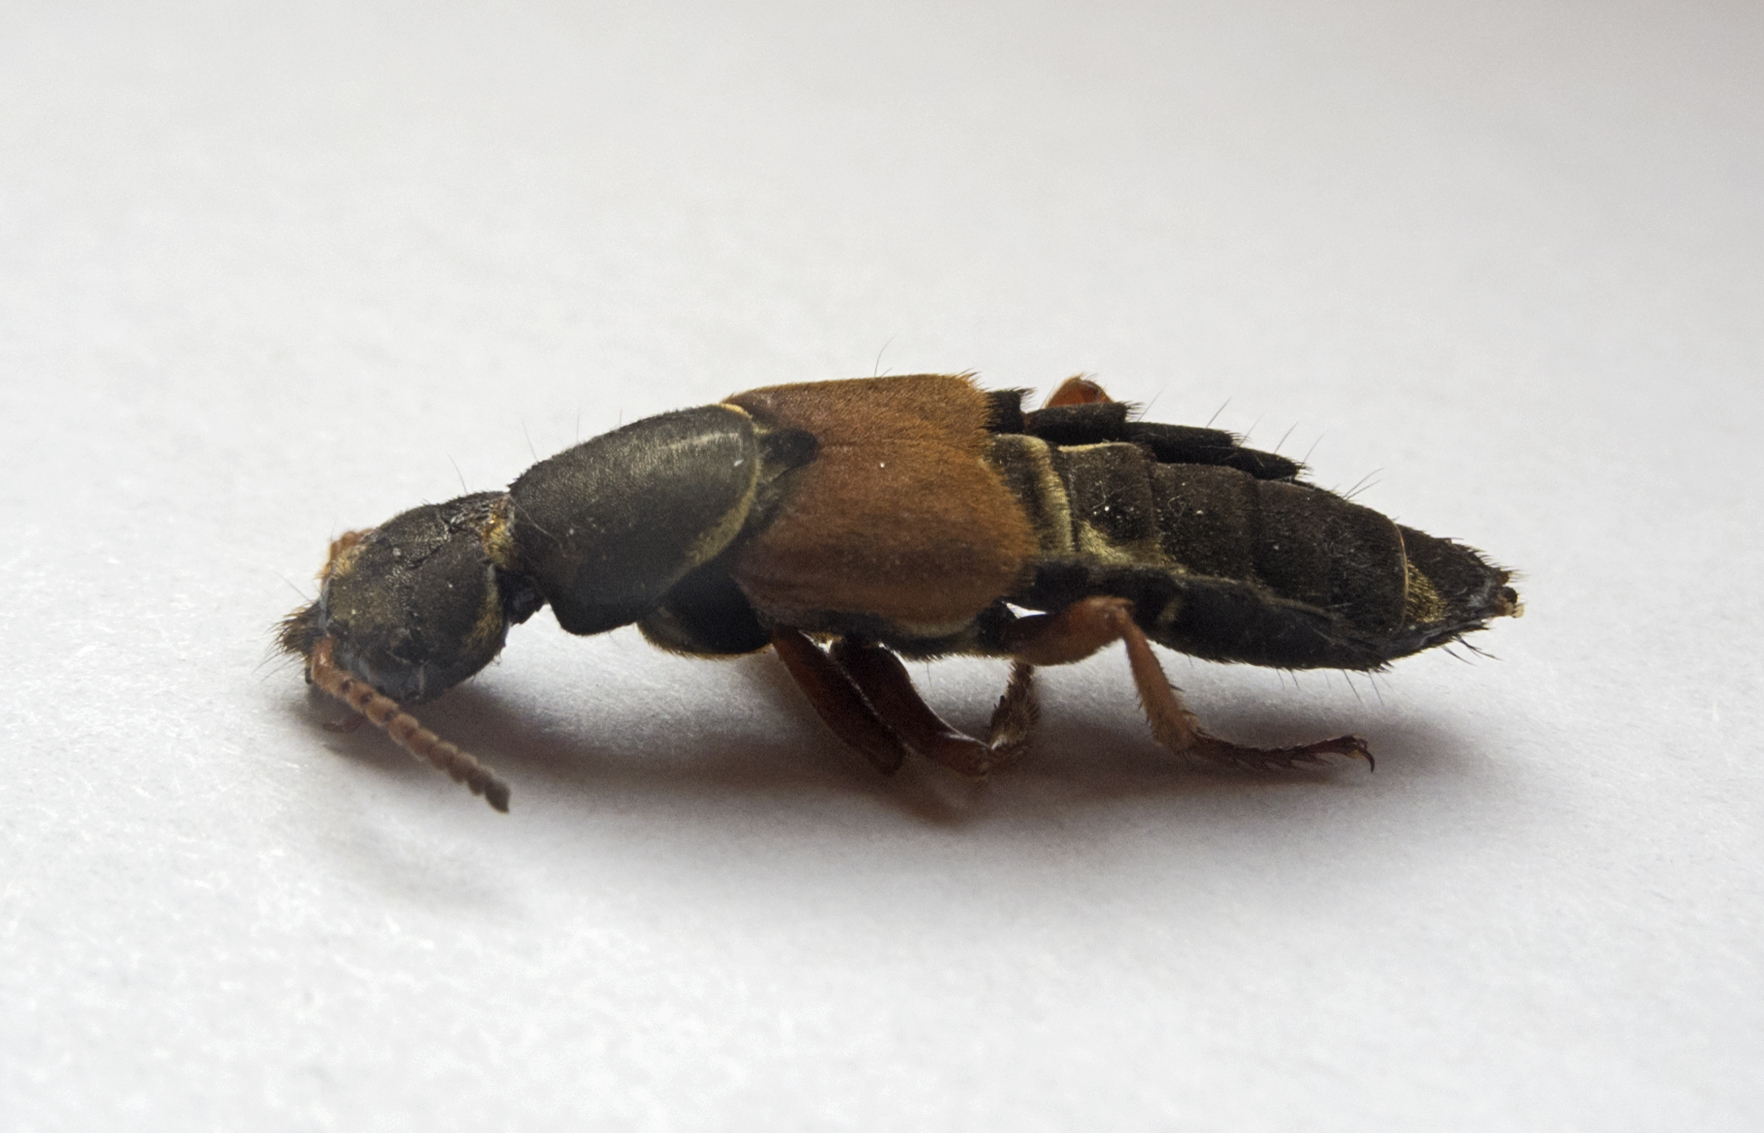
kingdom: Animalia
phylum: Arthropoda
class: Insecta
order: Coleoptera
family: Staphylinidae
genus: Staphylinus
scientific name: Staphylinus caesareus
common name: Staph beetle
